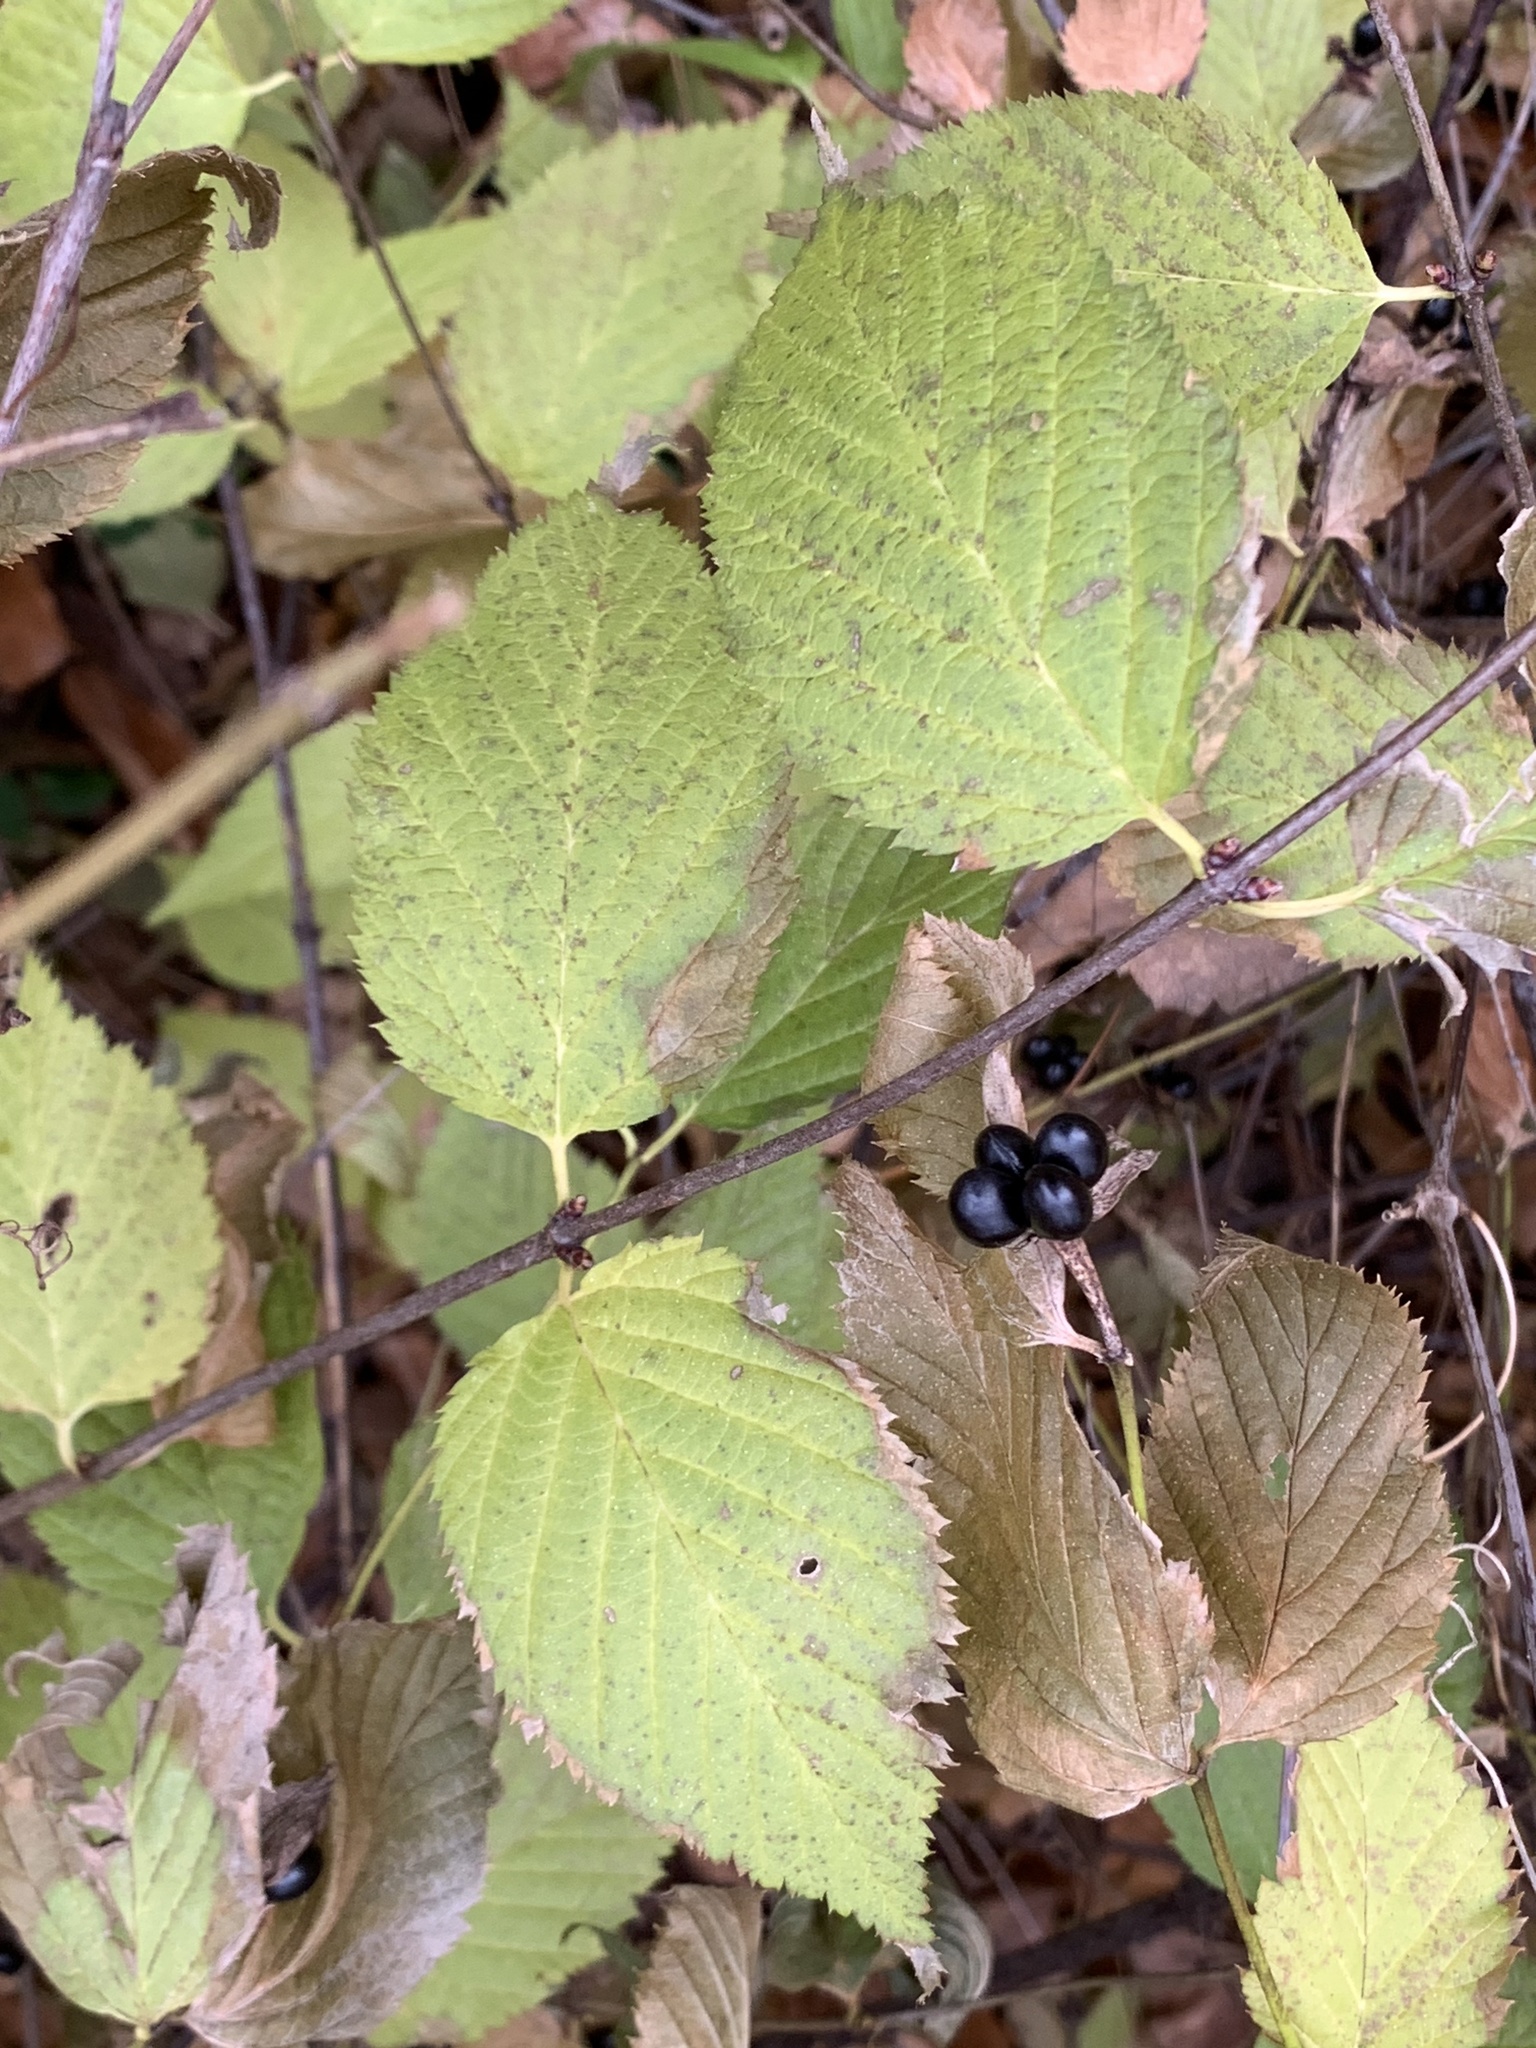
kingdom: Plantae
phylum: Tracheophyta
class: Magnoliopsida
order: Rosales
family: Rosaceae
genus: Rhodotypos
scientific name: Rhodotypos scandens
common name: Jetbead
